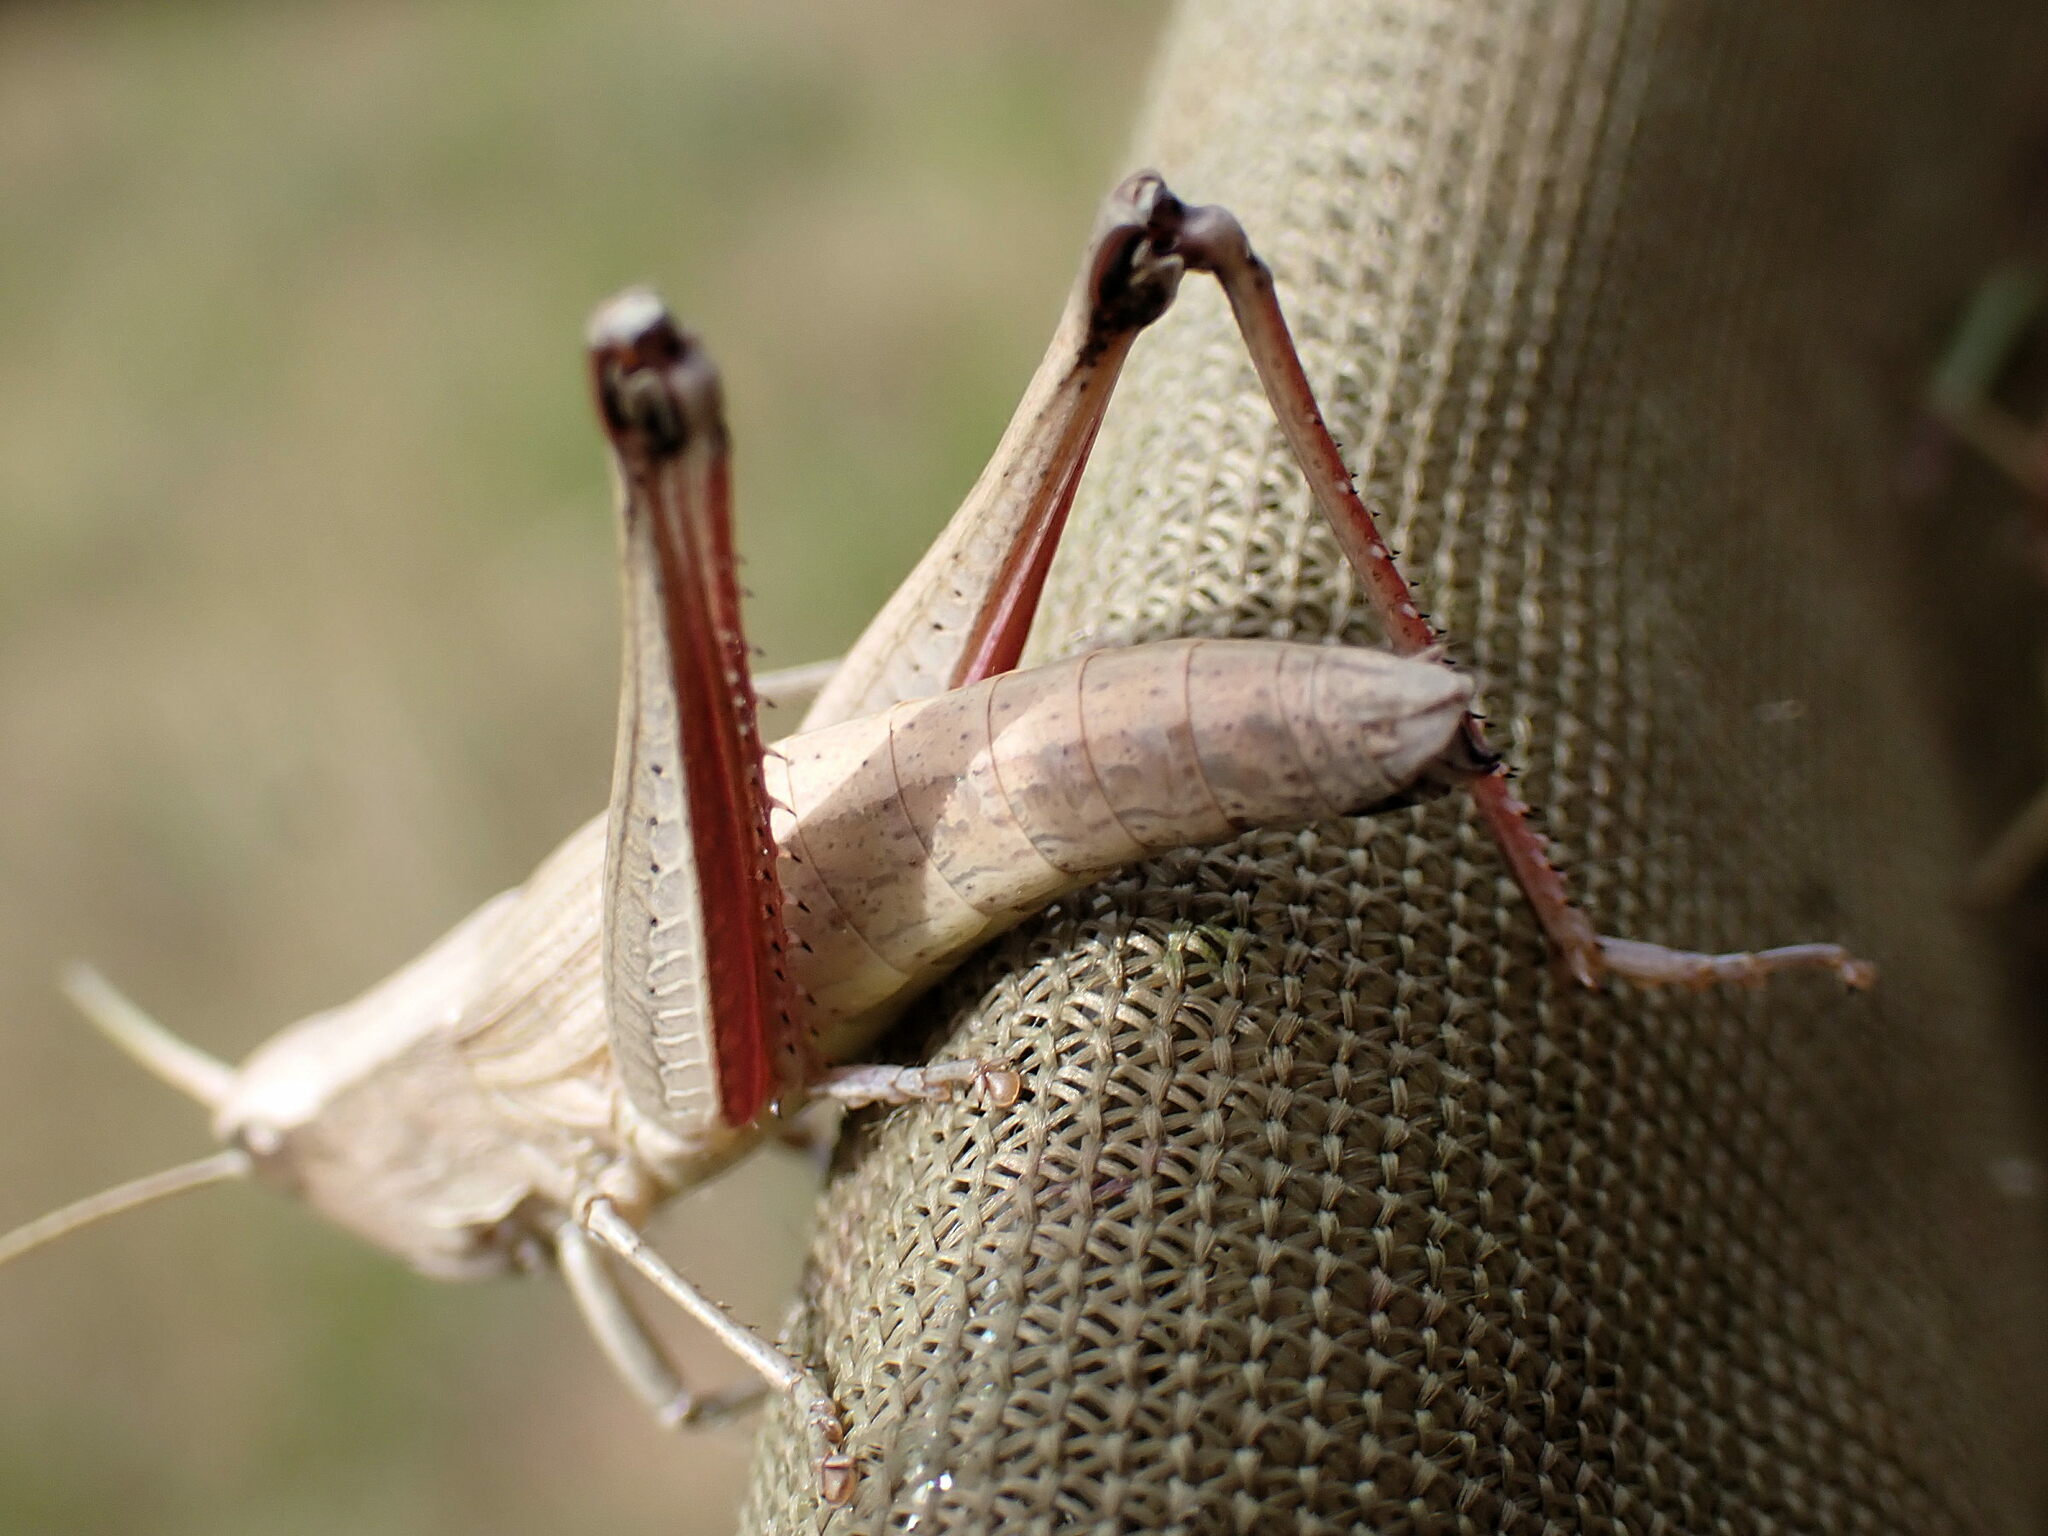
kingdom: Animalia
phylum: Arthropoda
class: Insecta
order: Orthoptera
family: Acrididae
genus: Chrysochraon
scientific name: Chrysochraon dispar
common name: Large gold grasshopper
